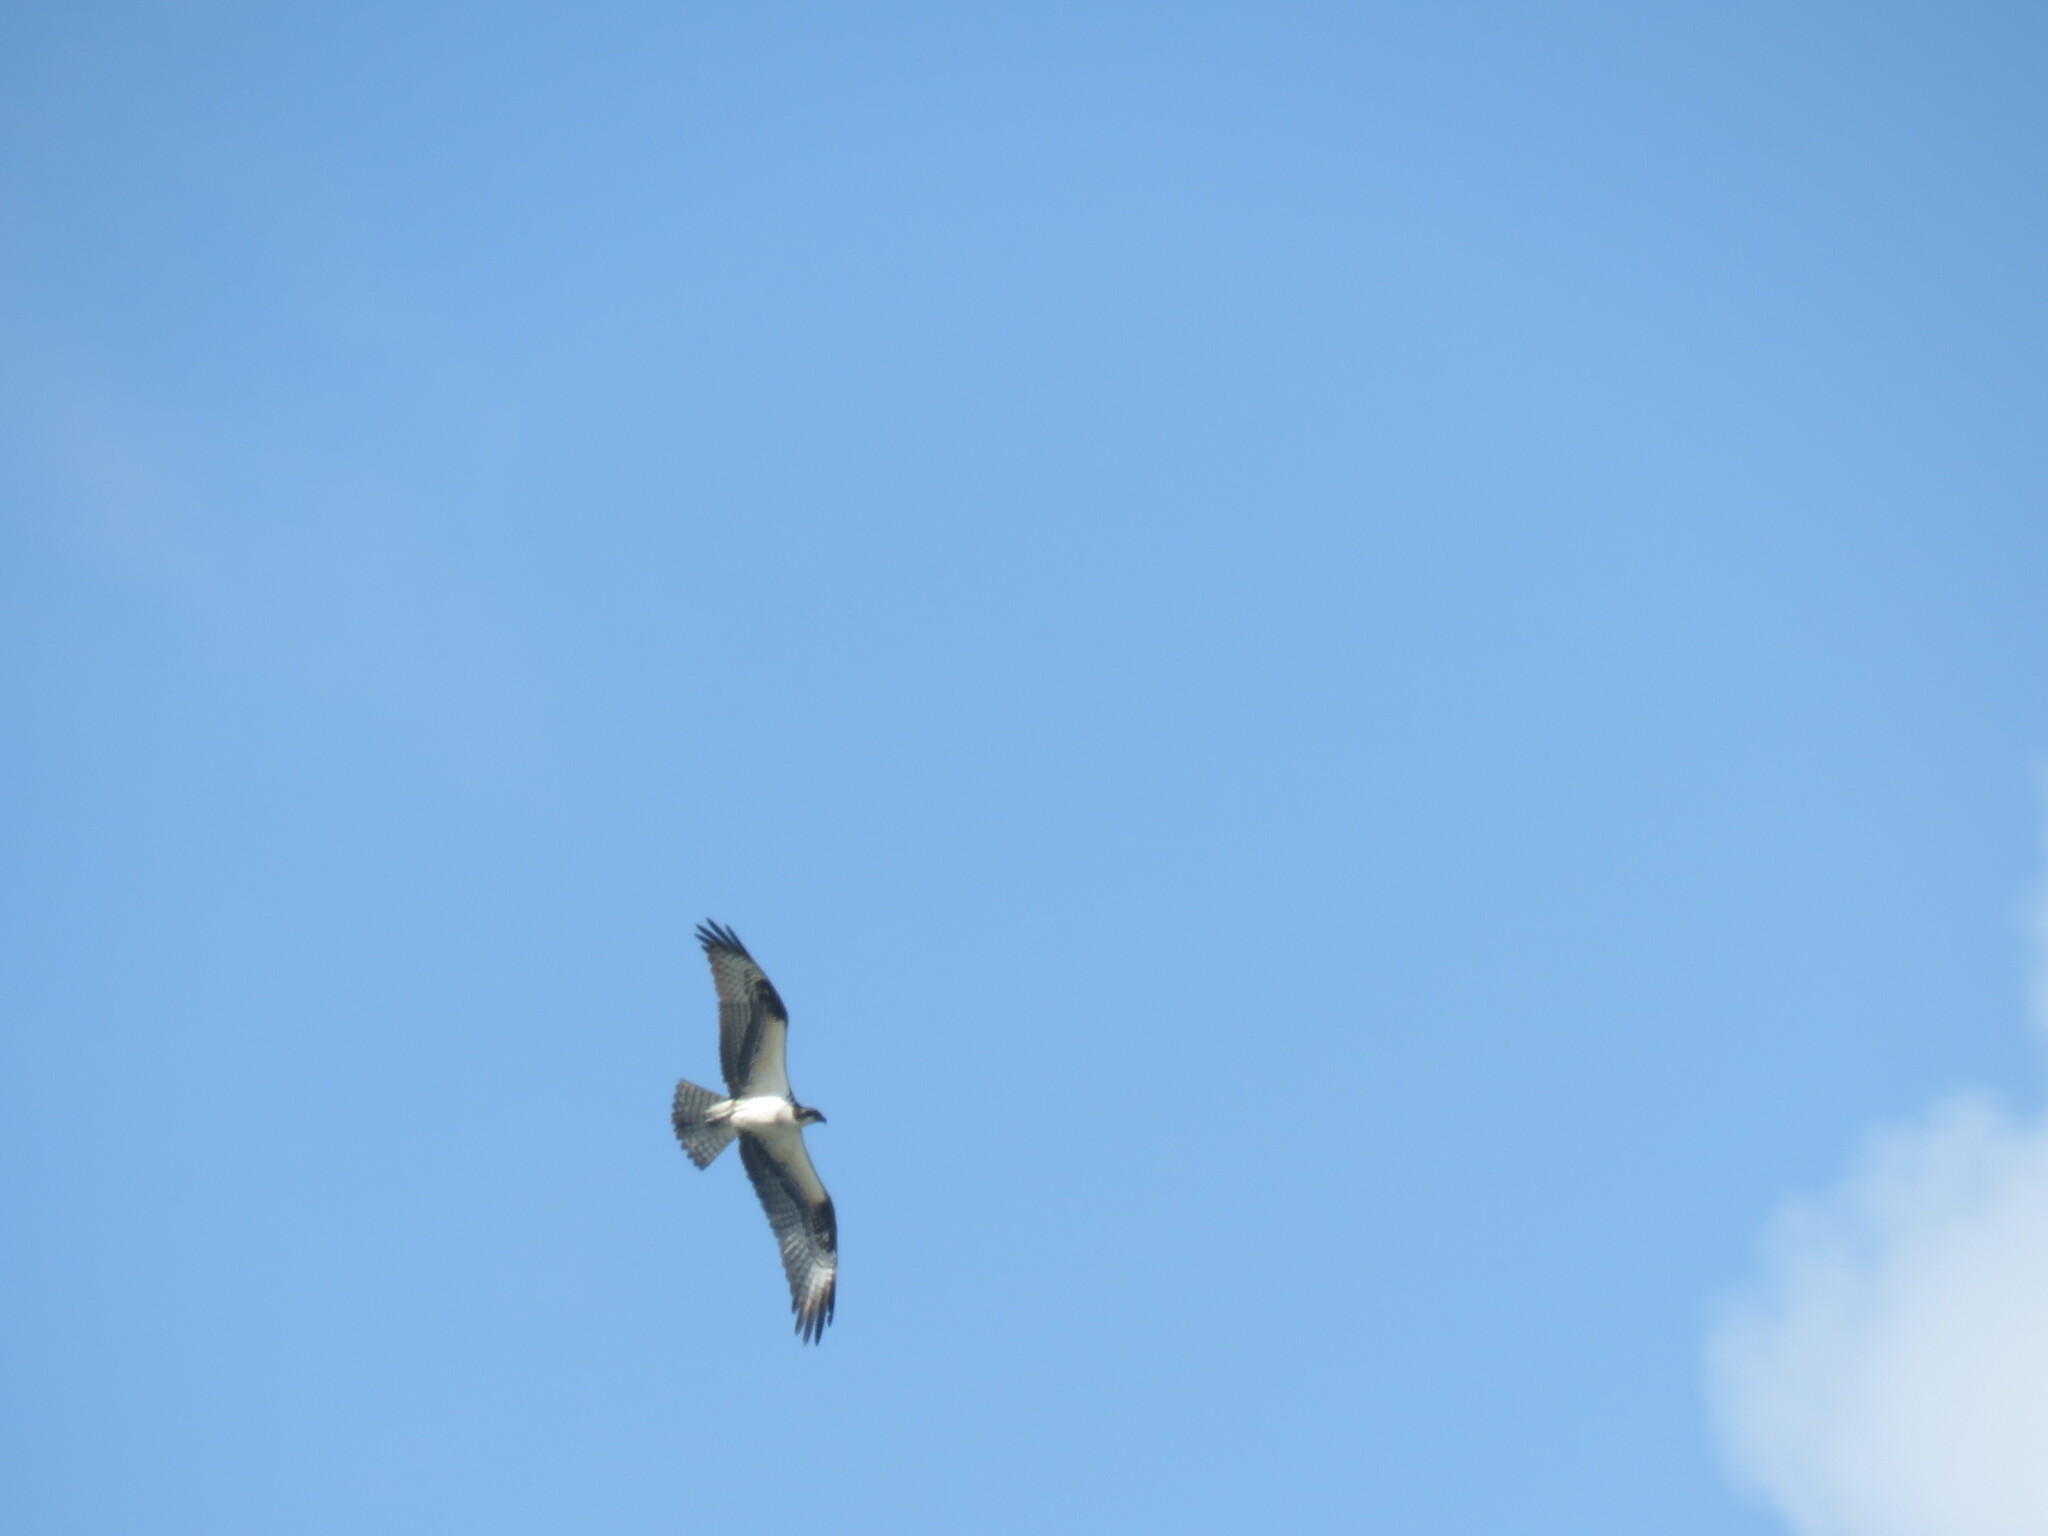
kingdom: Animalia
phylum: Chordata
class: Aves
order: Accipitriformes
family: Pandionidae
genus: Pandion
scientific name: Pandion haliaetus
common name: Osprey
